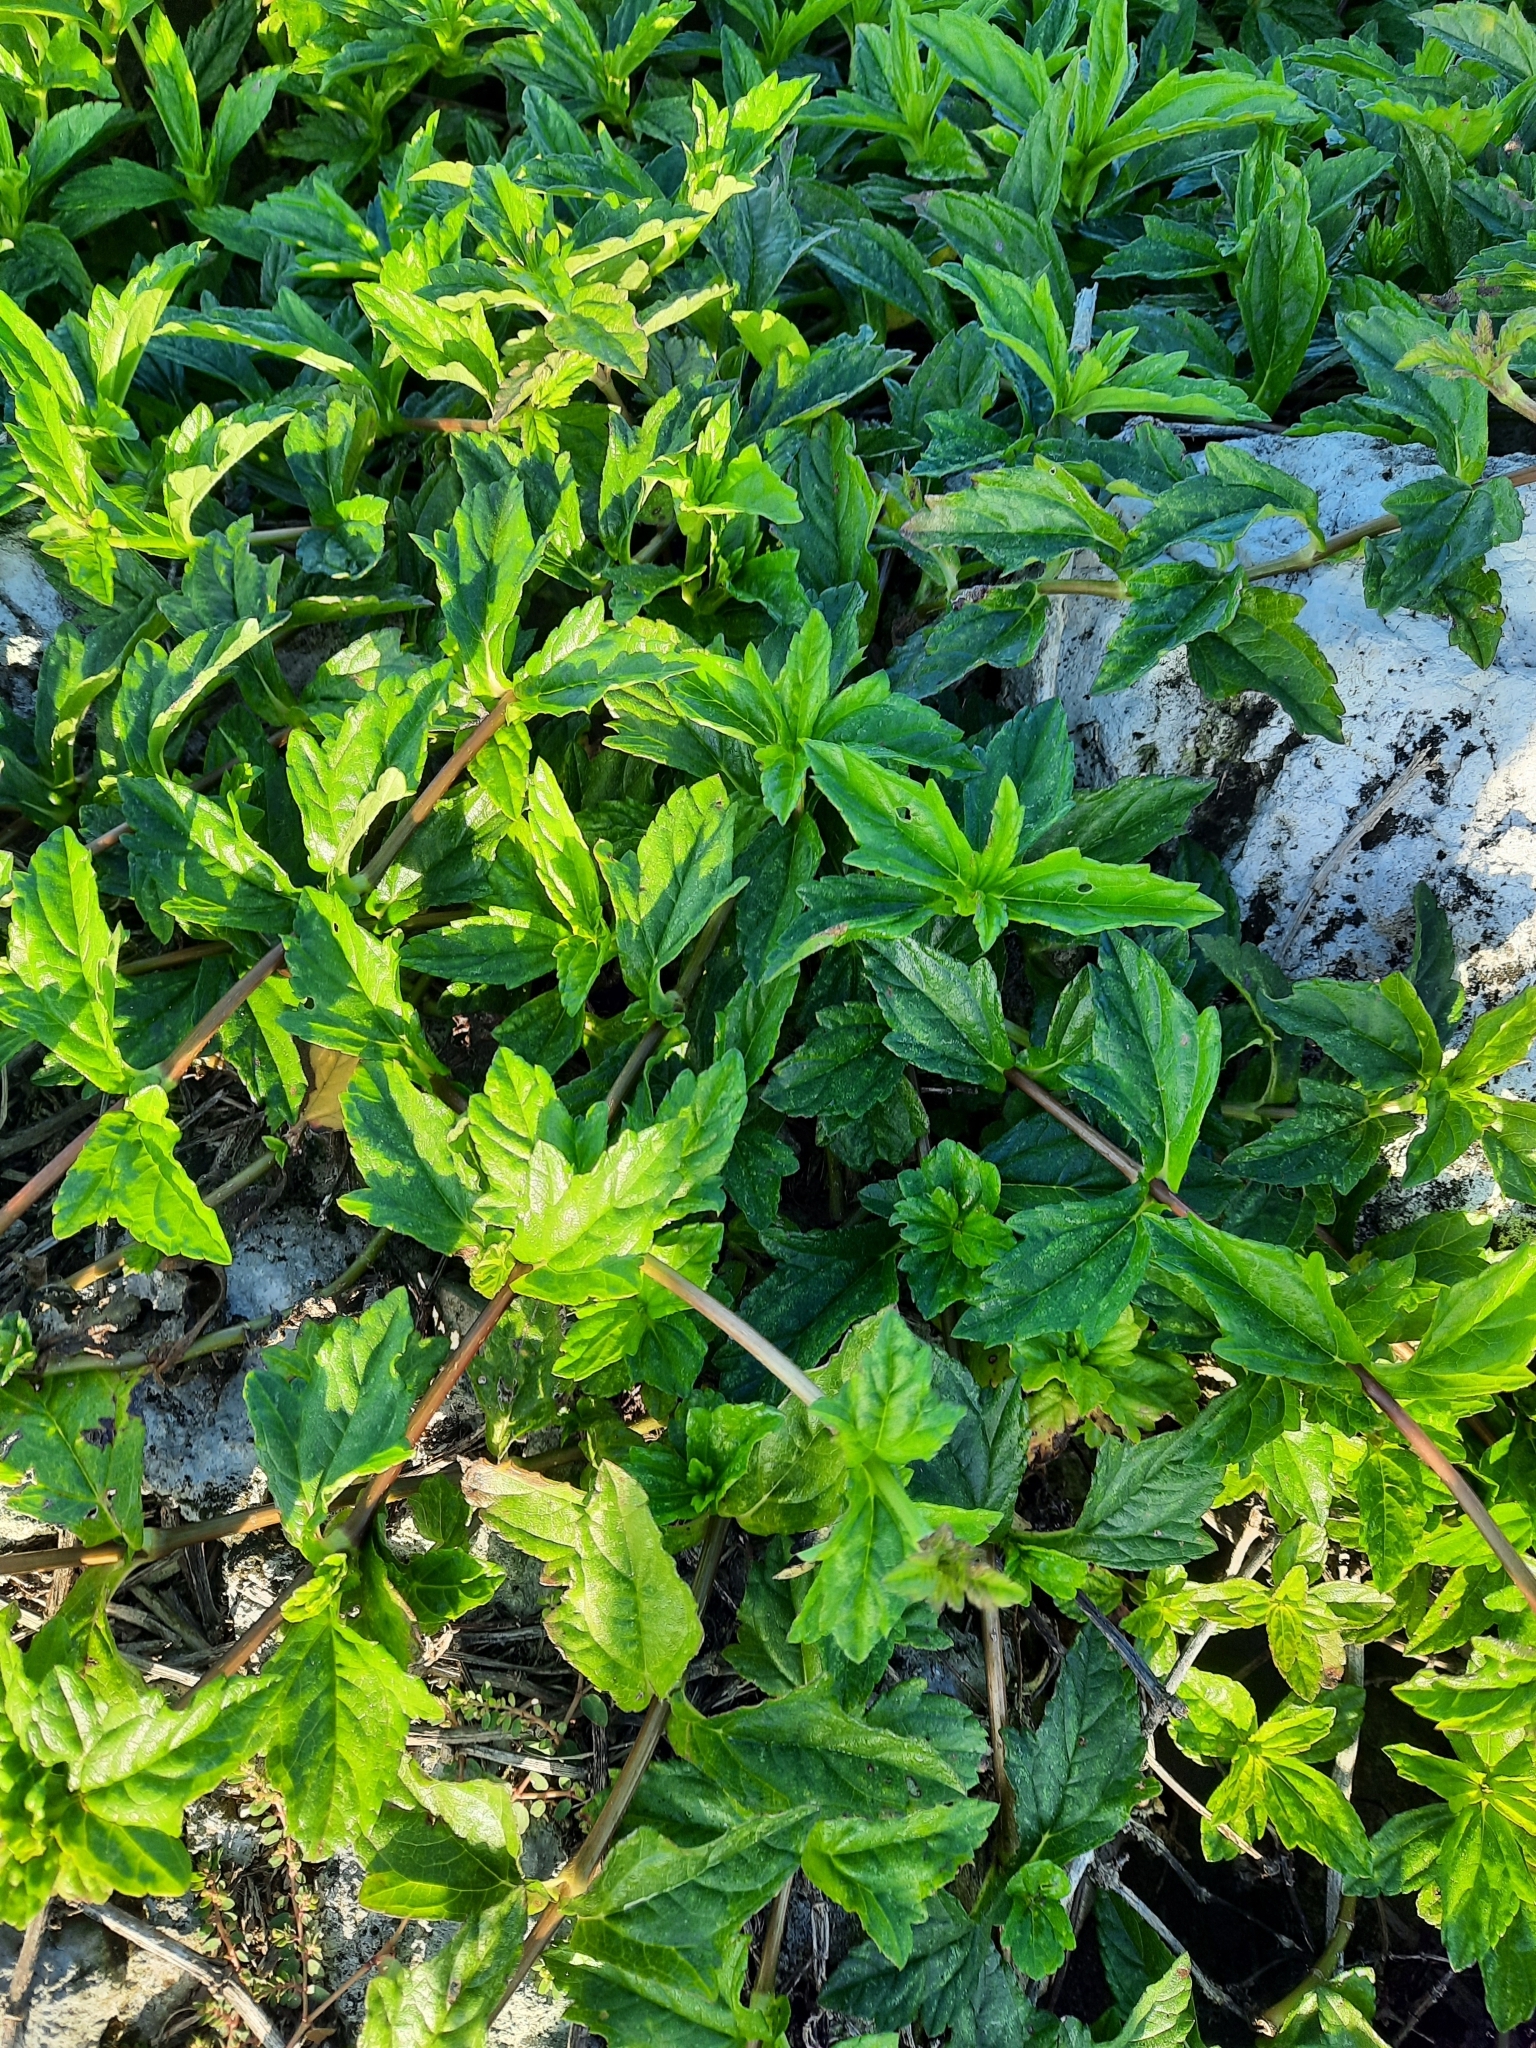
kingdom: Plantae
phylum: Tracheophyta
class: Magnoliopsida
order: Asterales
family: Asteraceae
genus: Sphagneticola
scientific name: Sphagneticola trilobata
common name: Bay biscayne creeping-oxeye
